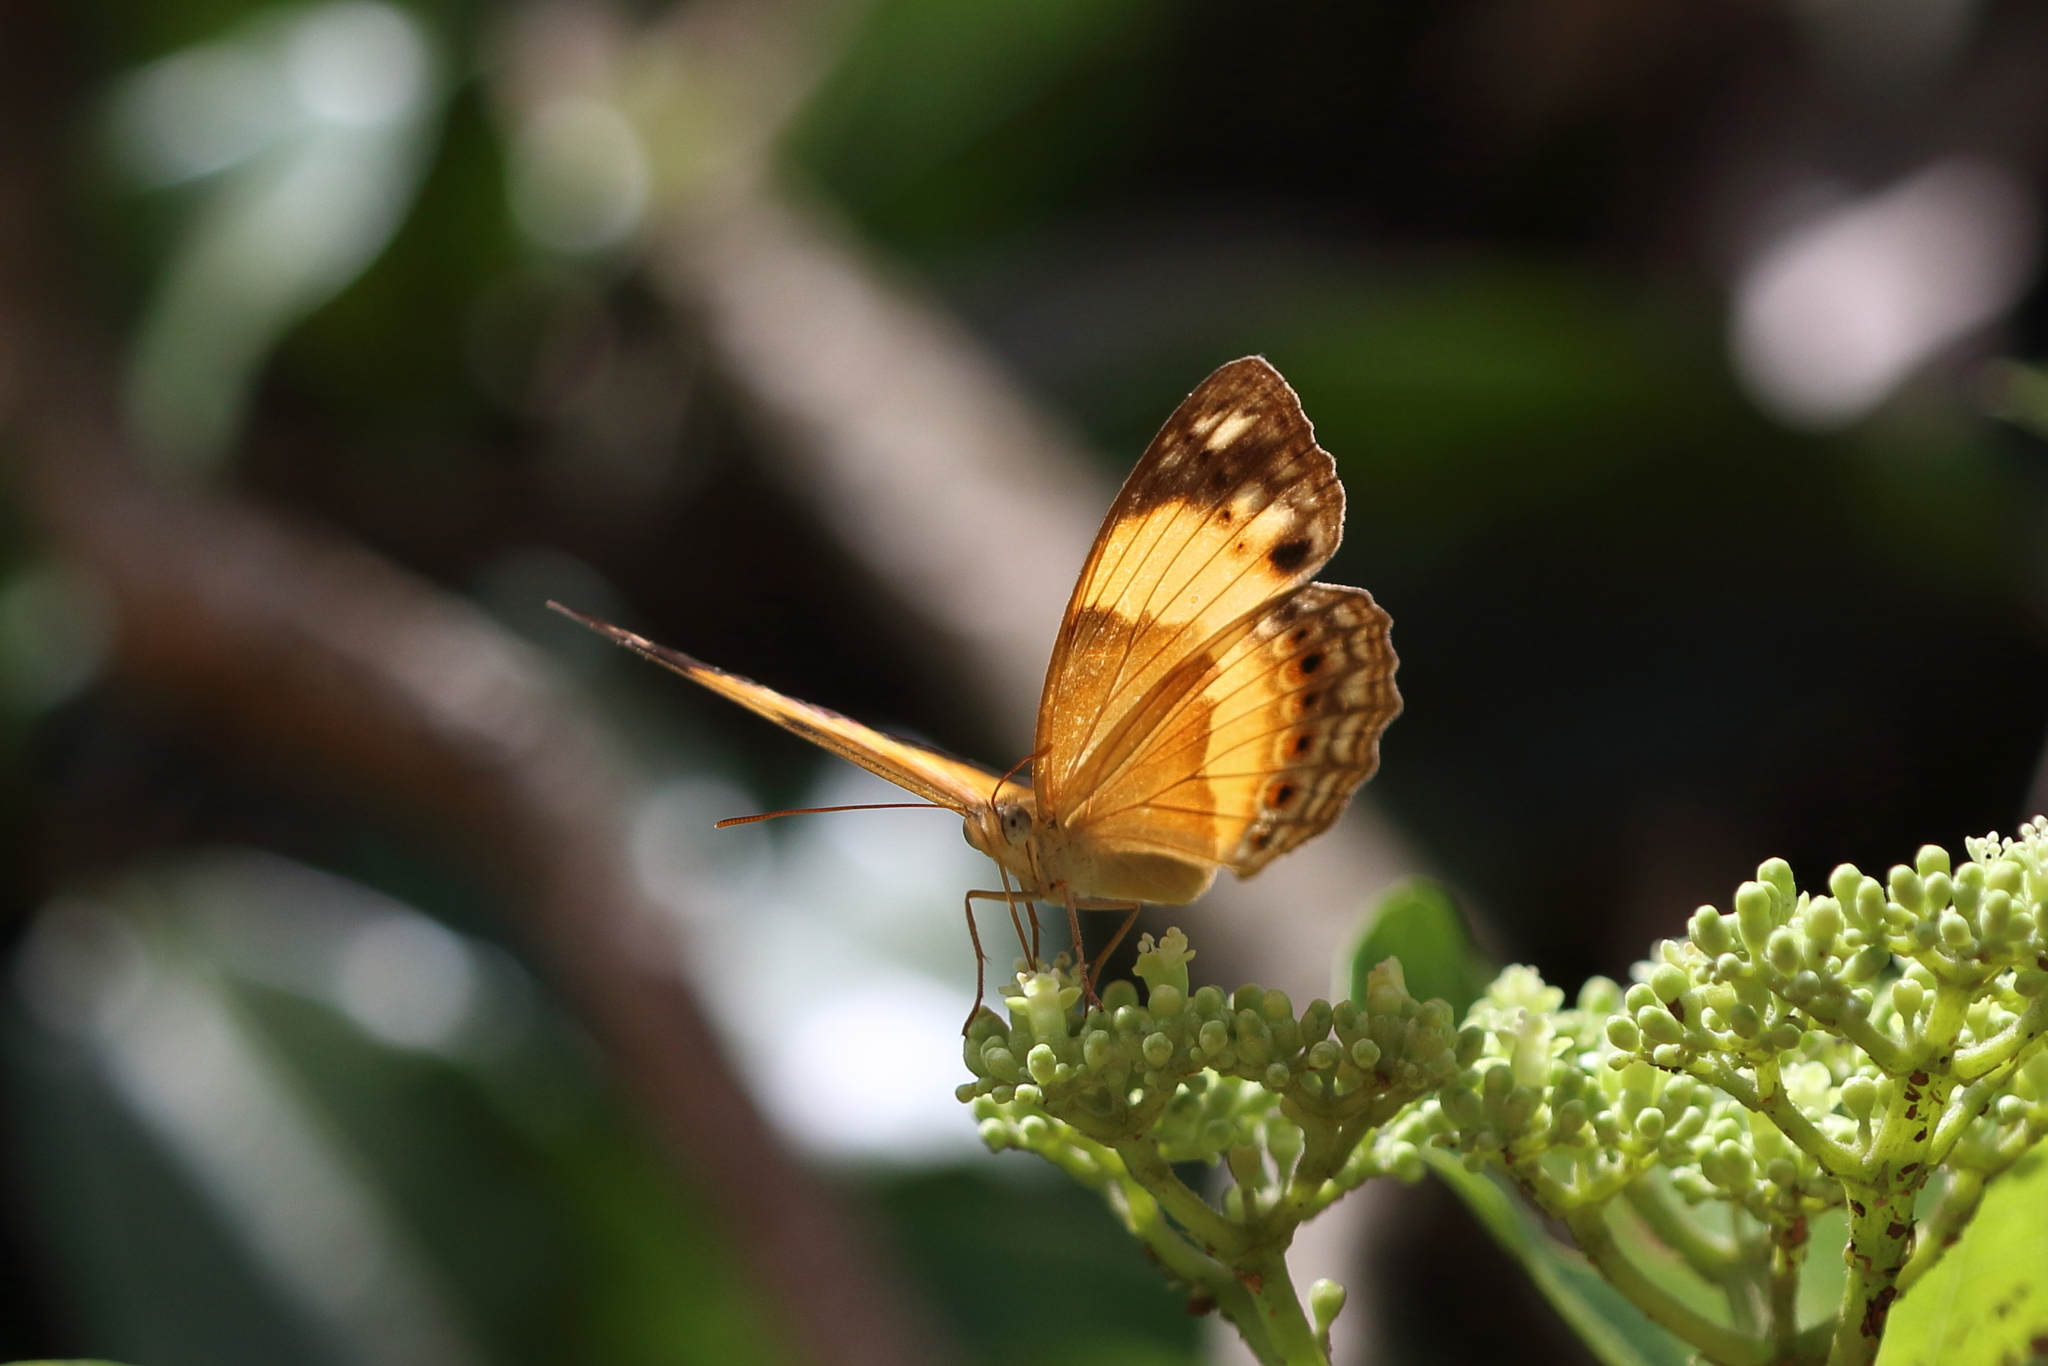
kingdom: Animalia
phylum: Arthropoda
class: Insecta
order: Lepidoptera
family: Nymphalidae
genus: Cupha
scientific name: Cupha prosope
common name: Bordered rustic
